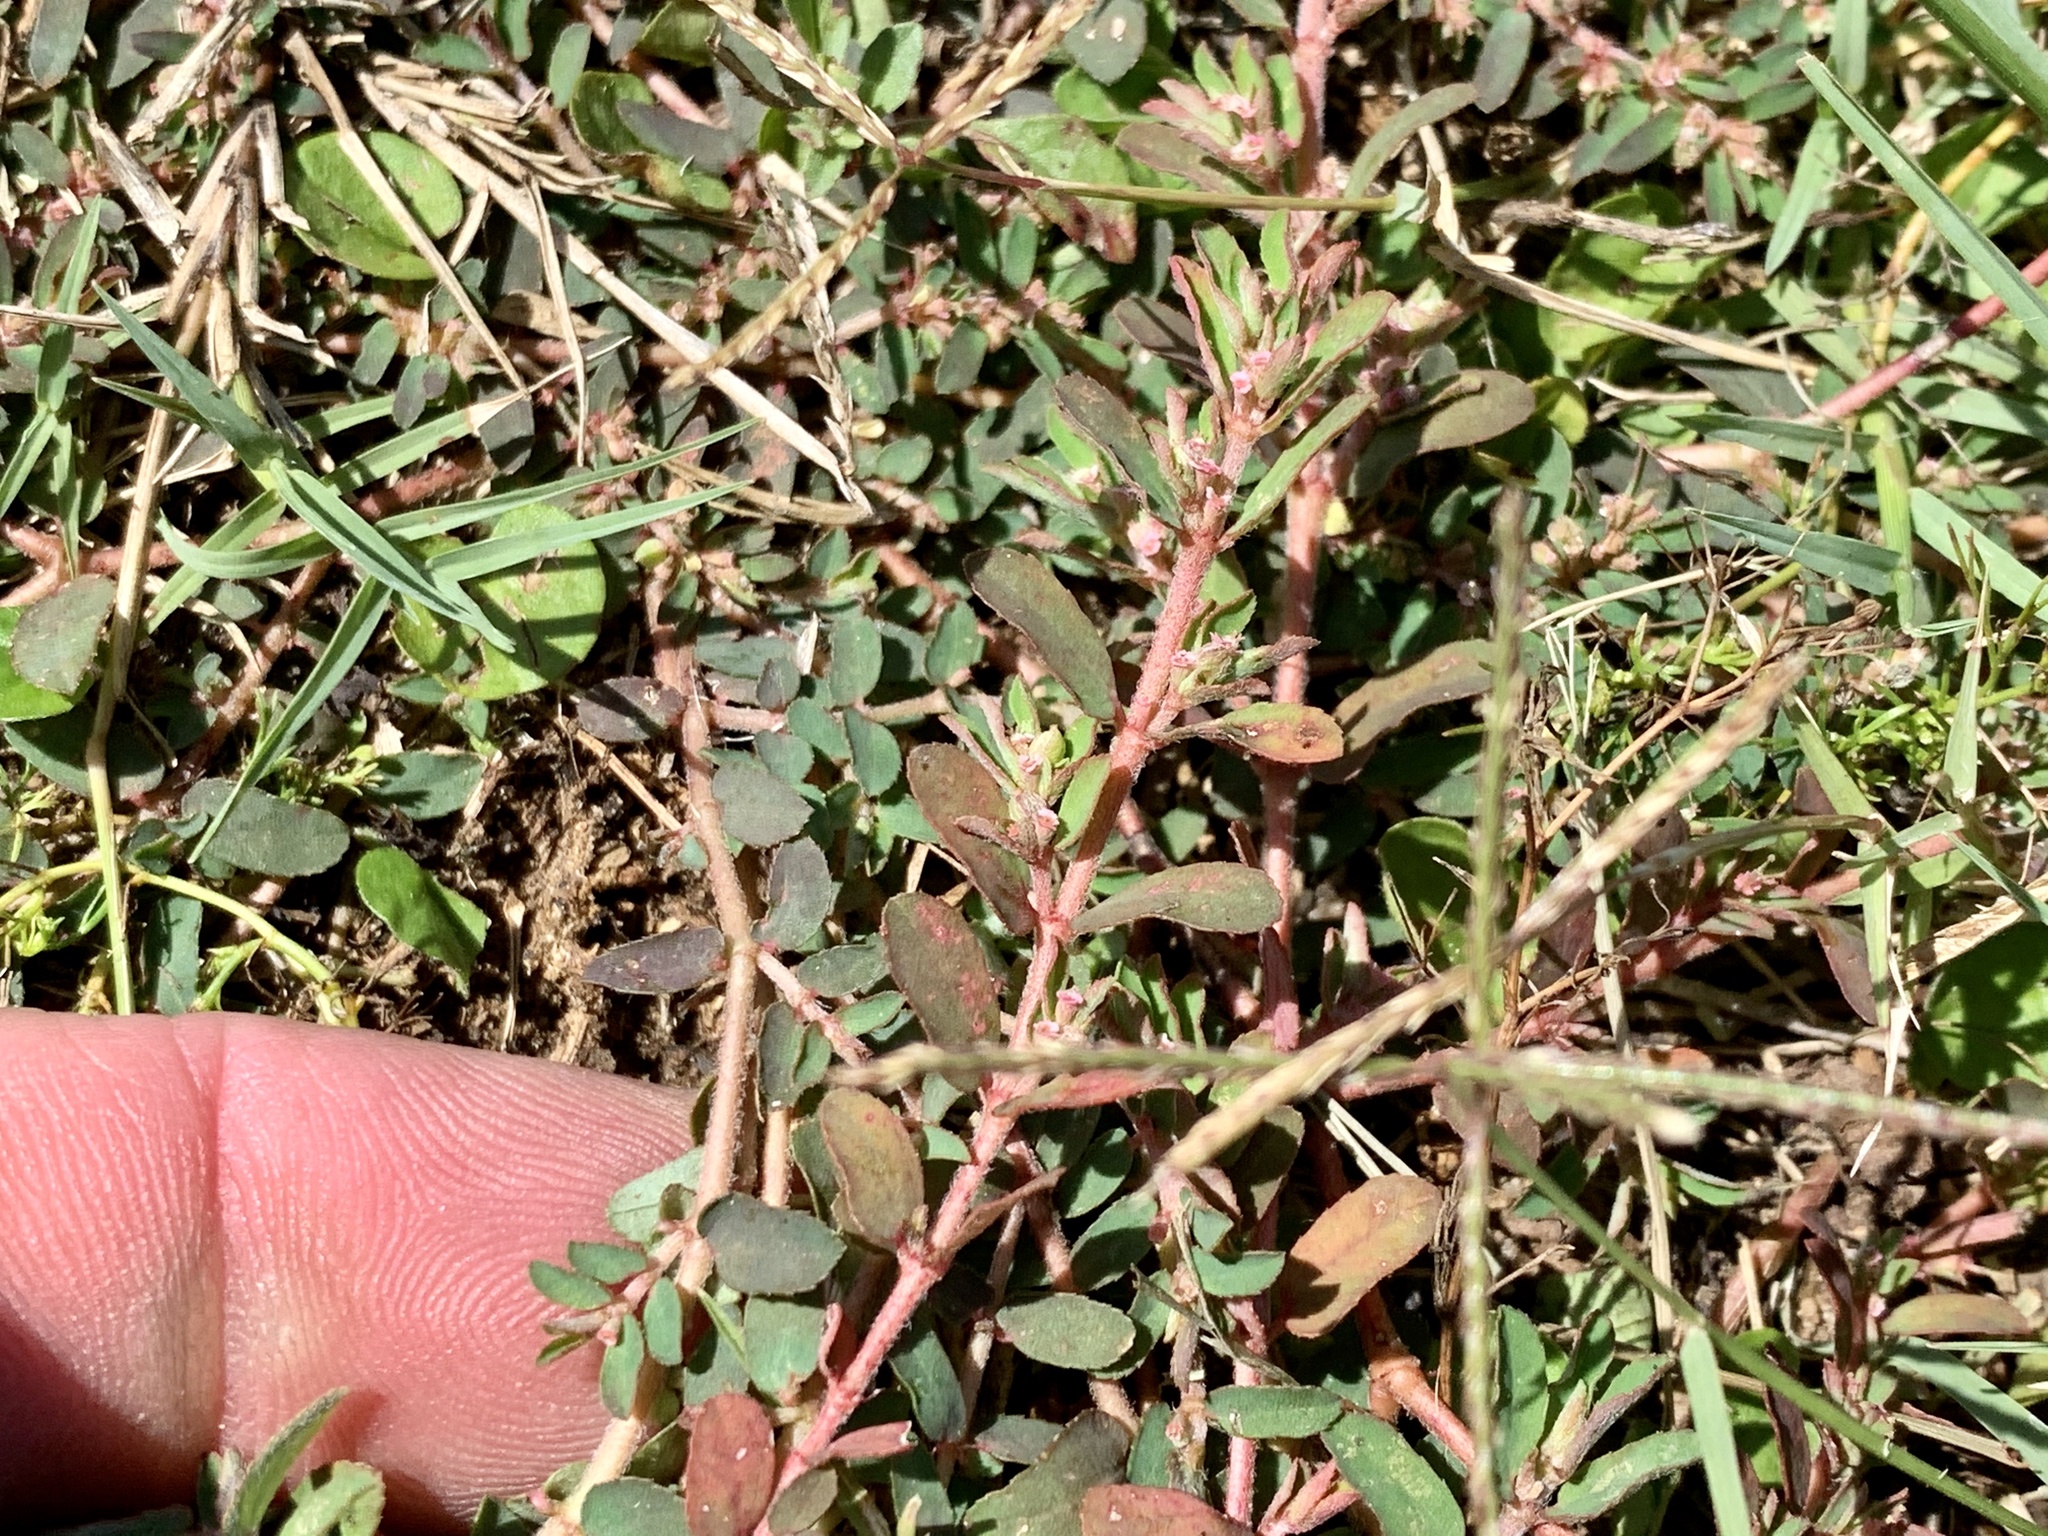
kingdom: Plantae
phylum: Tracheophyta
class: Magnoliopsida
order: Malpighiales
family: Euphorbiaceae
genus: Euphorbia
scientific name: Euphorbia maculata
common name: Spotted spurge
